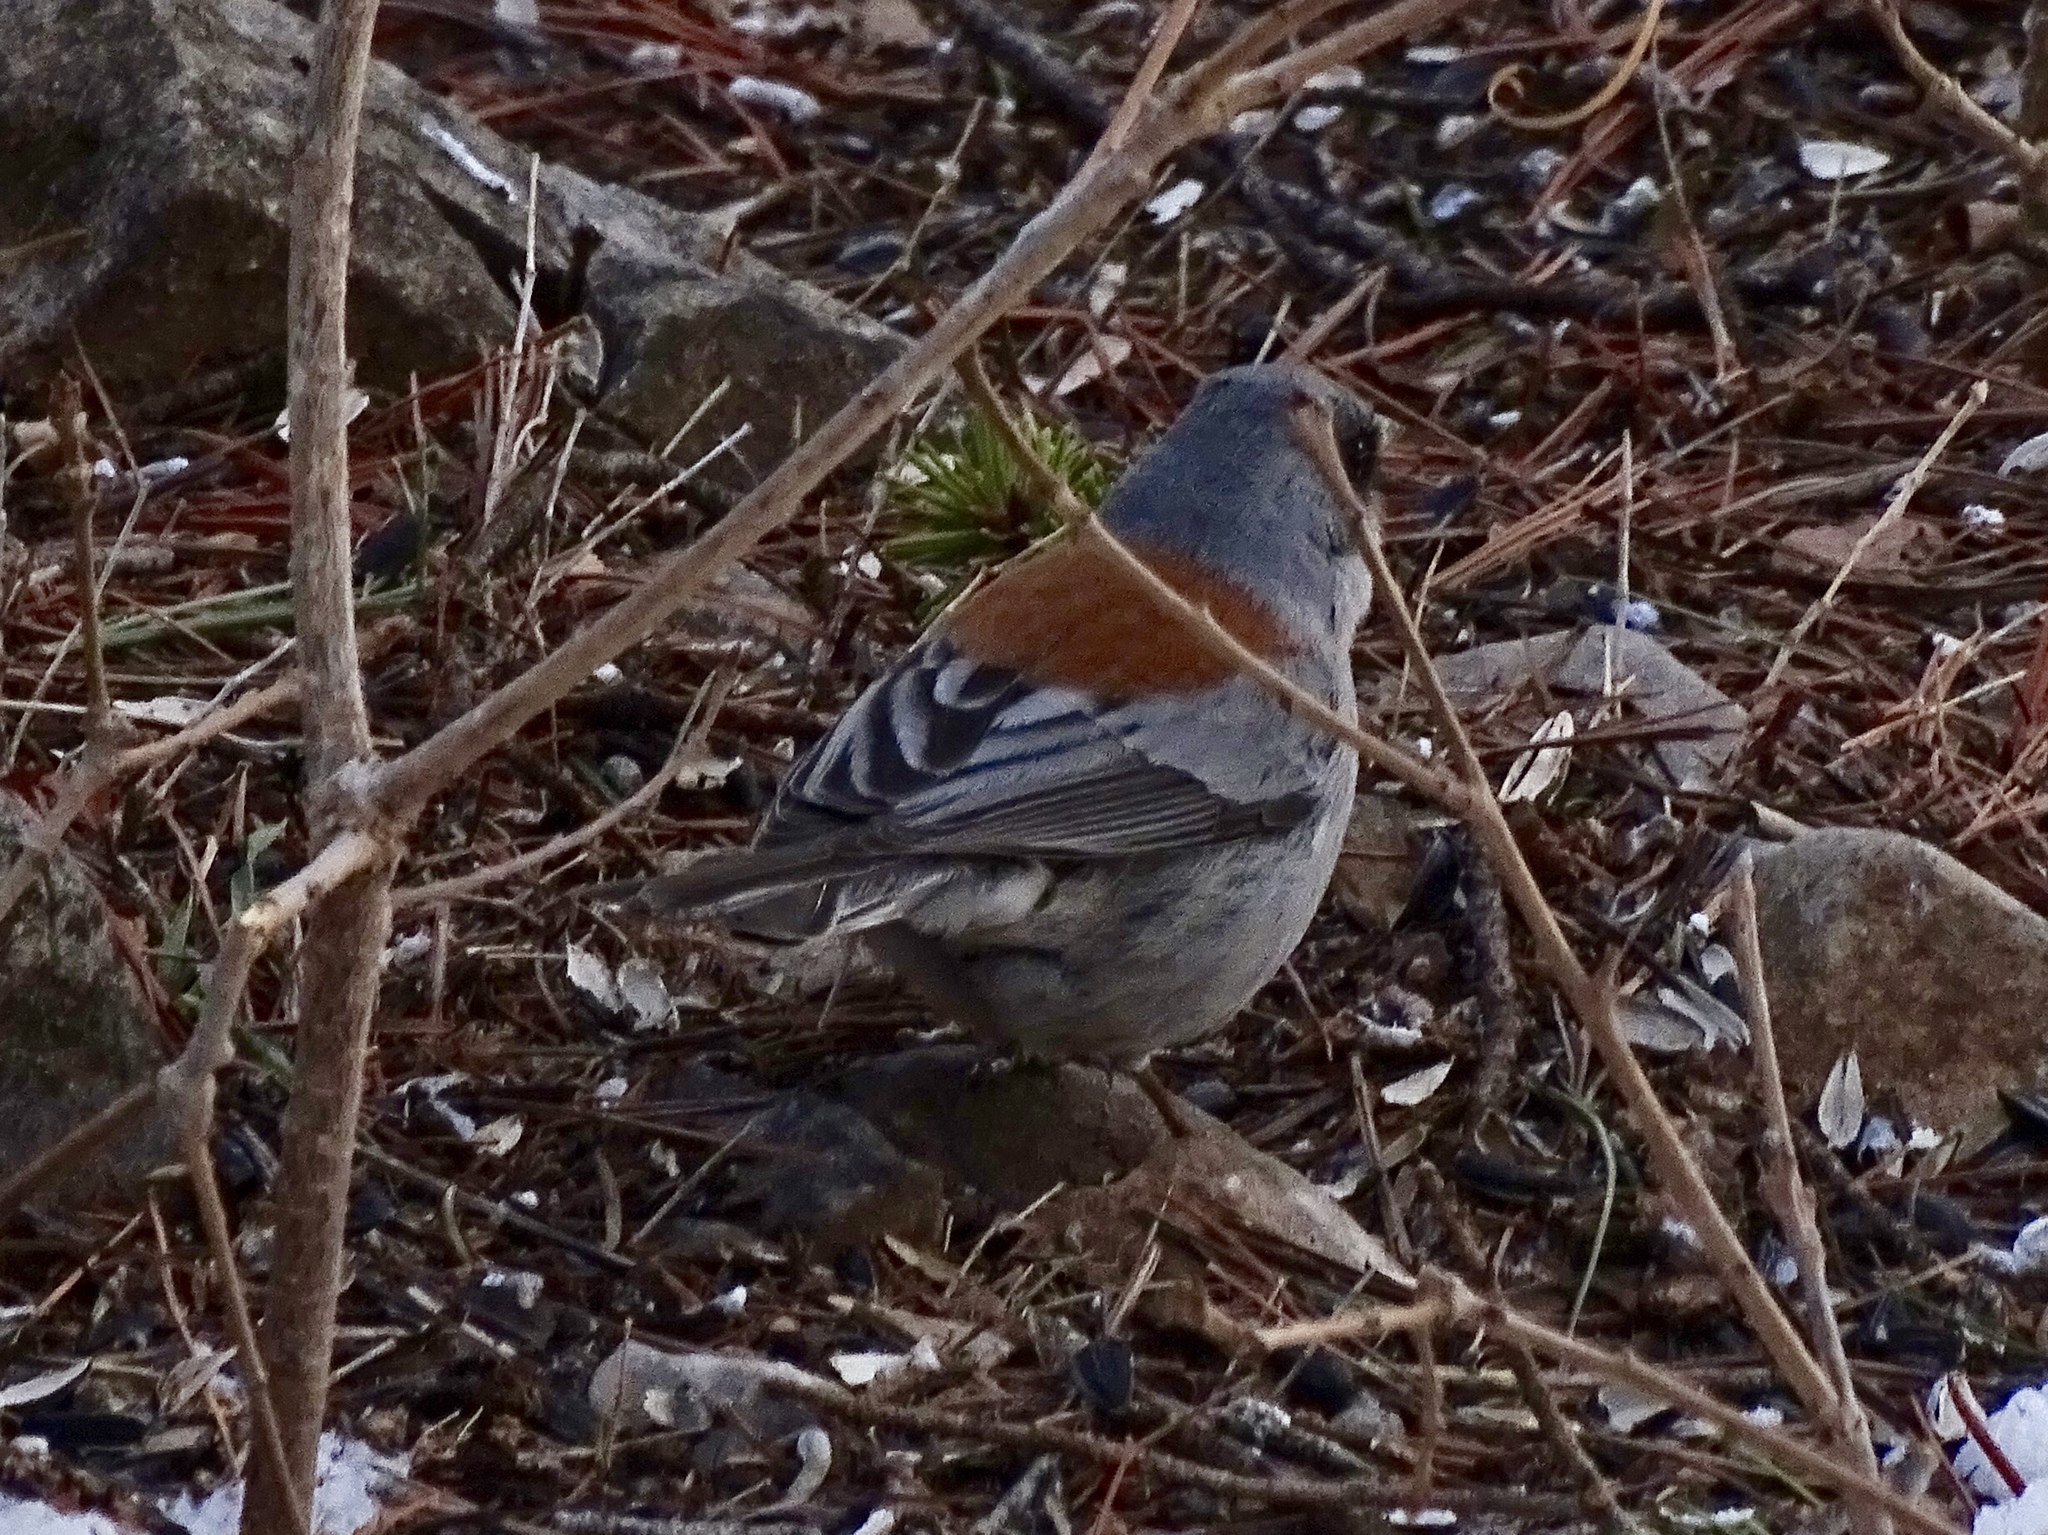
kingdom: Animalia
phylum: Chordata
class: Aves
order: Passeriformes
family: Passerellidae
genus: Junco
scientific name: Junco hyemalis
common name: Dark-eyed junco
